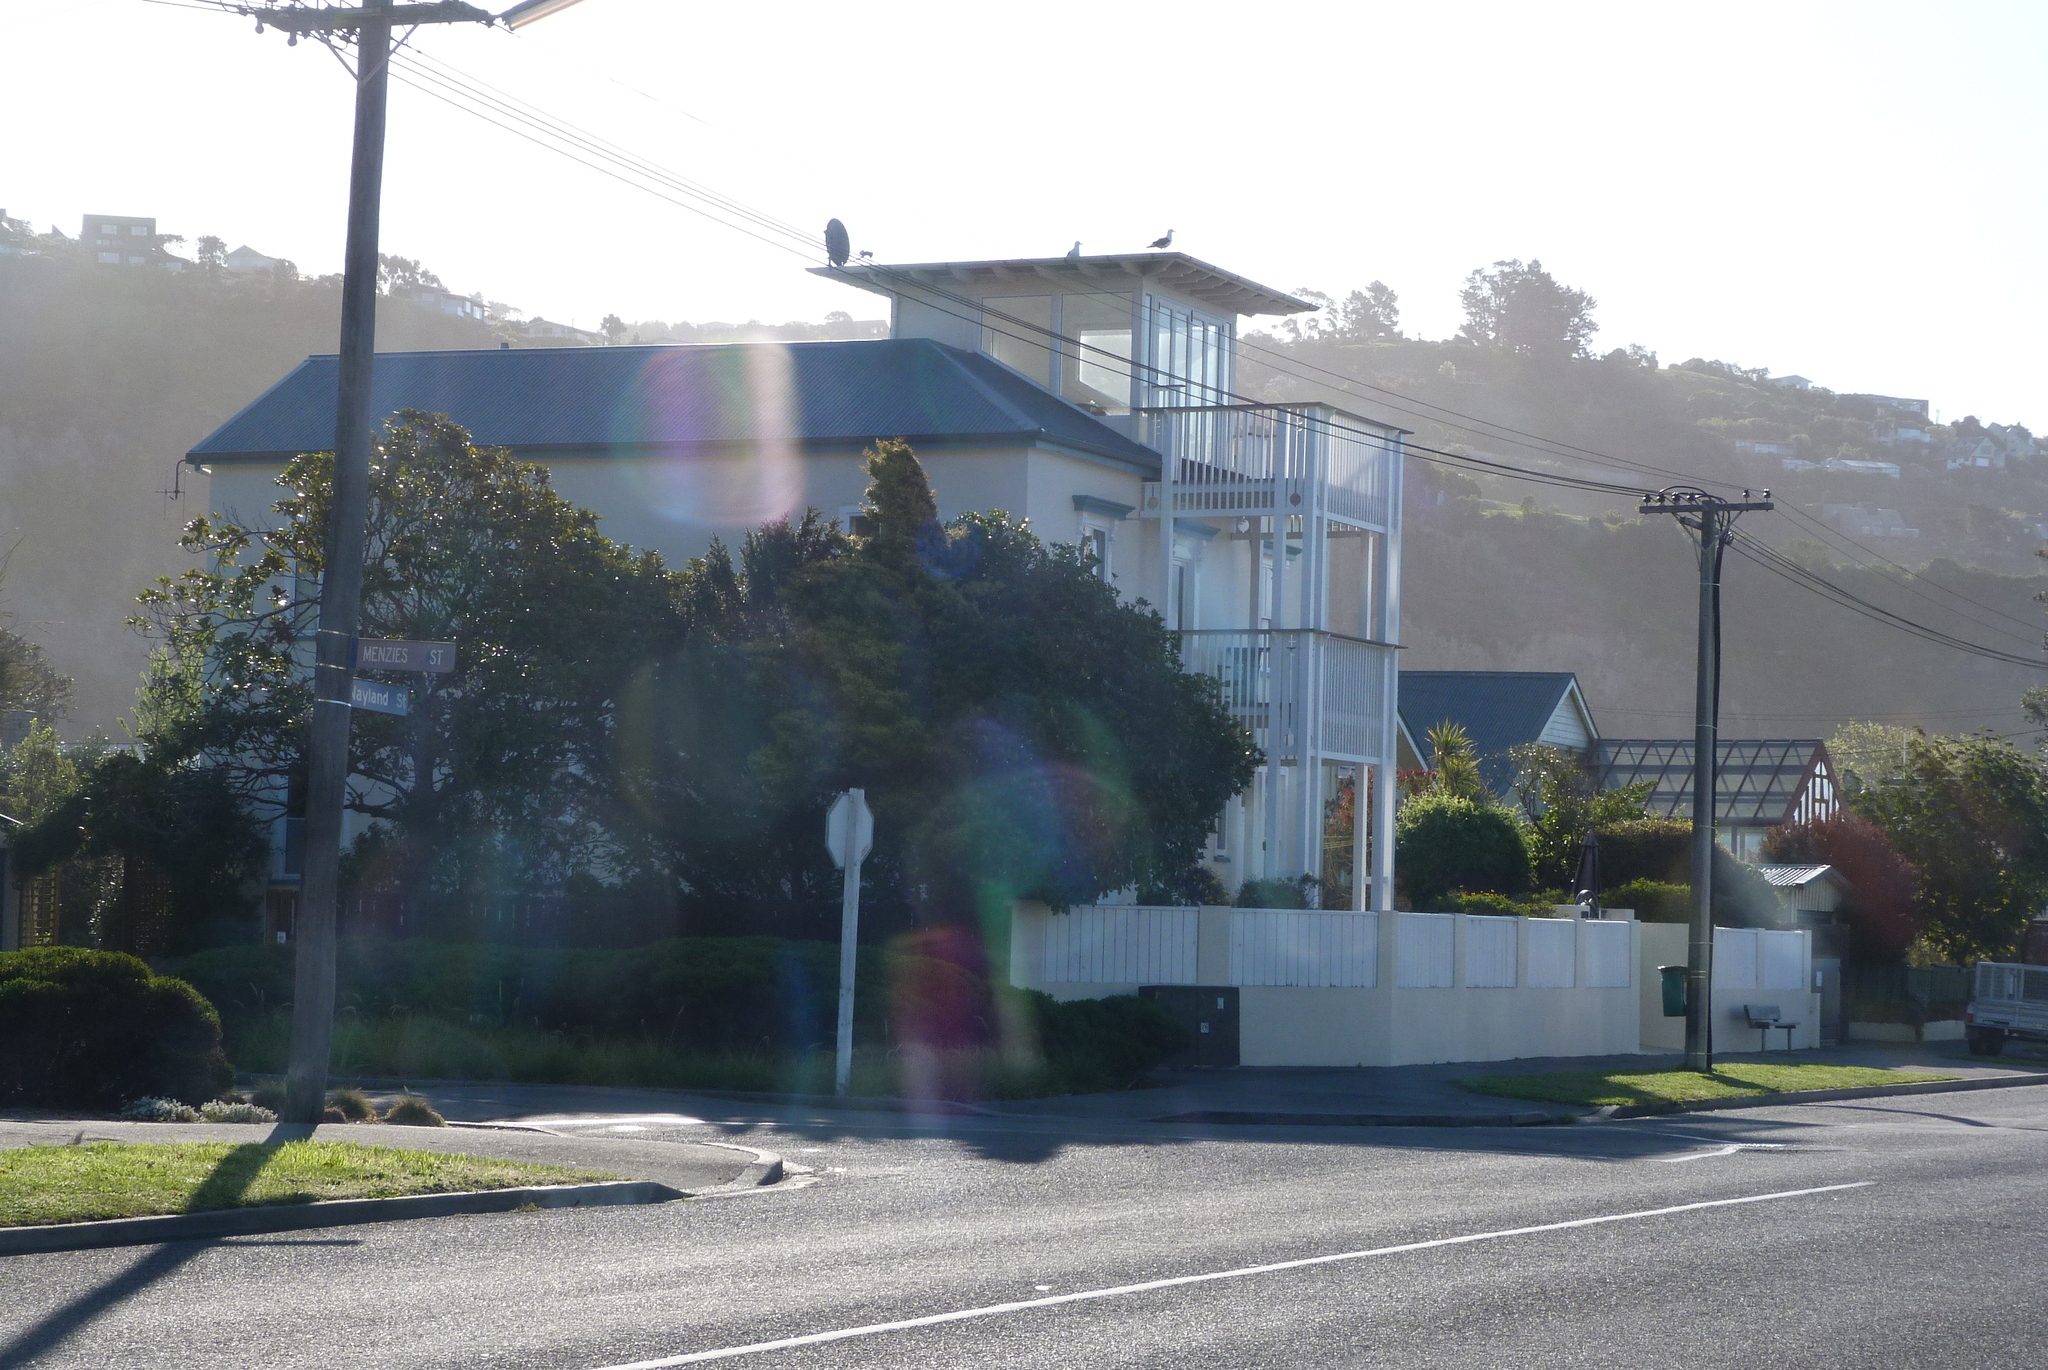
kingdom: Animalia
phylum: Chordata
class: Aves
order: Charadriiformes
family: Laridae
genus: Larus
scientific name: Larus dominicanus
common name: Kelp gull
